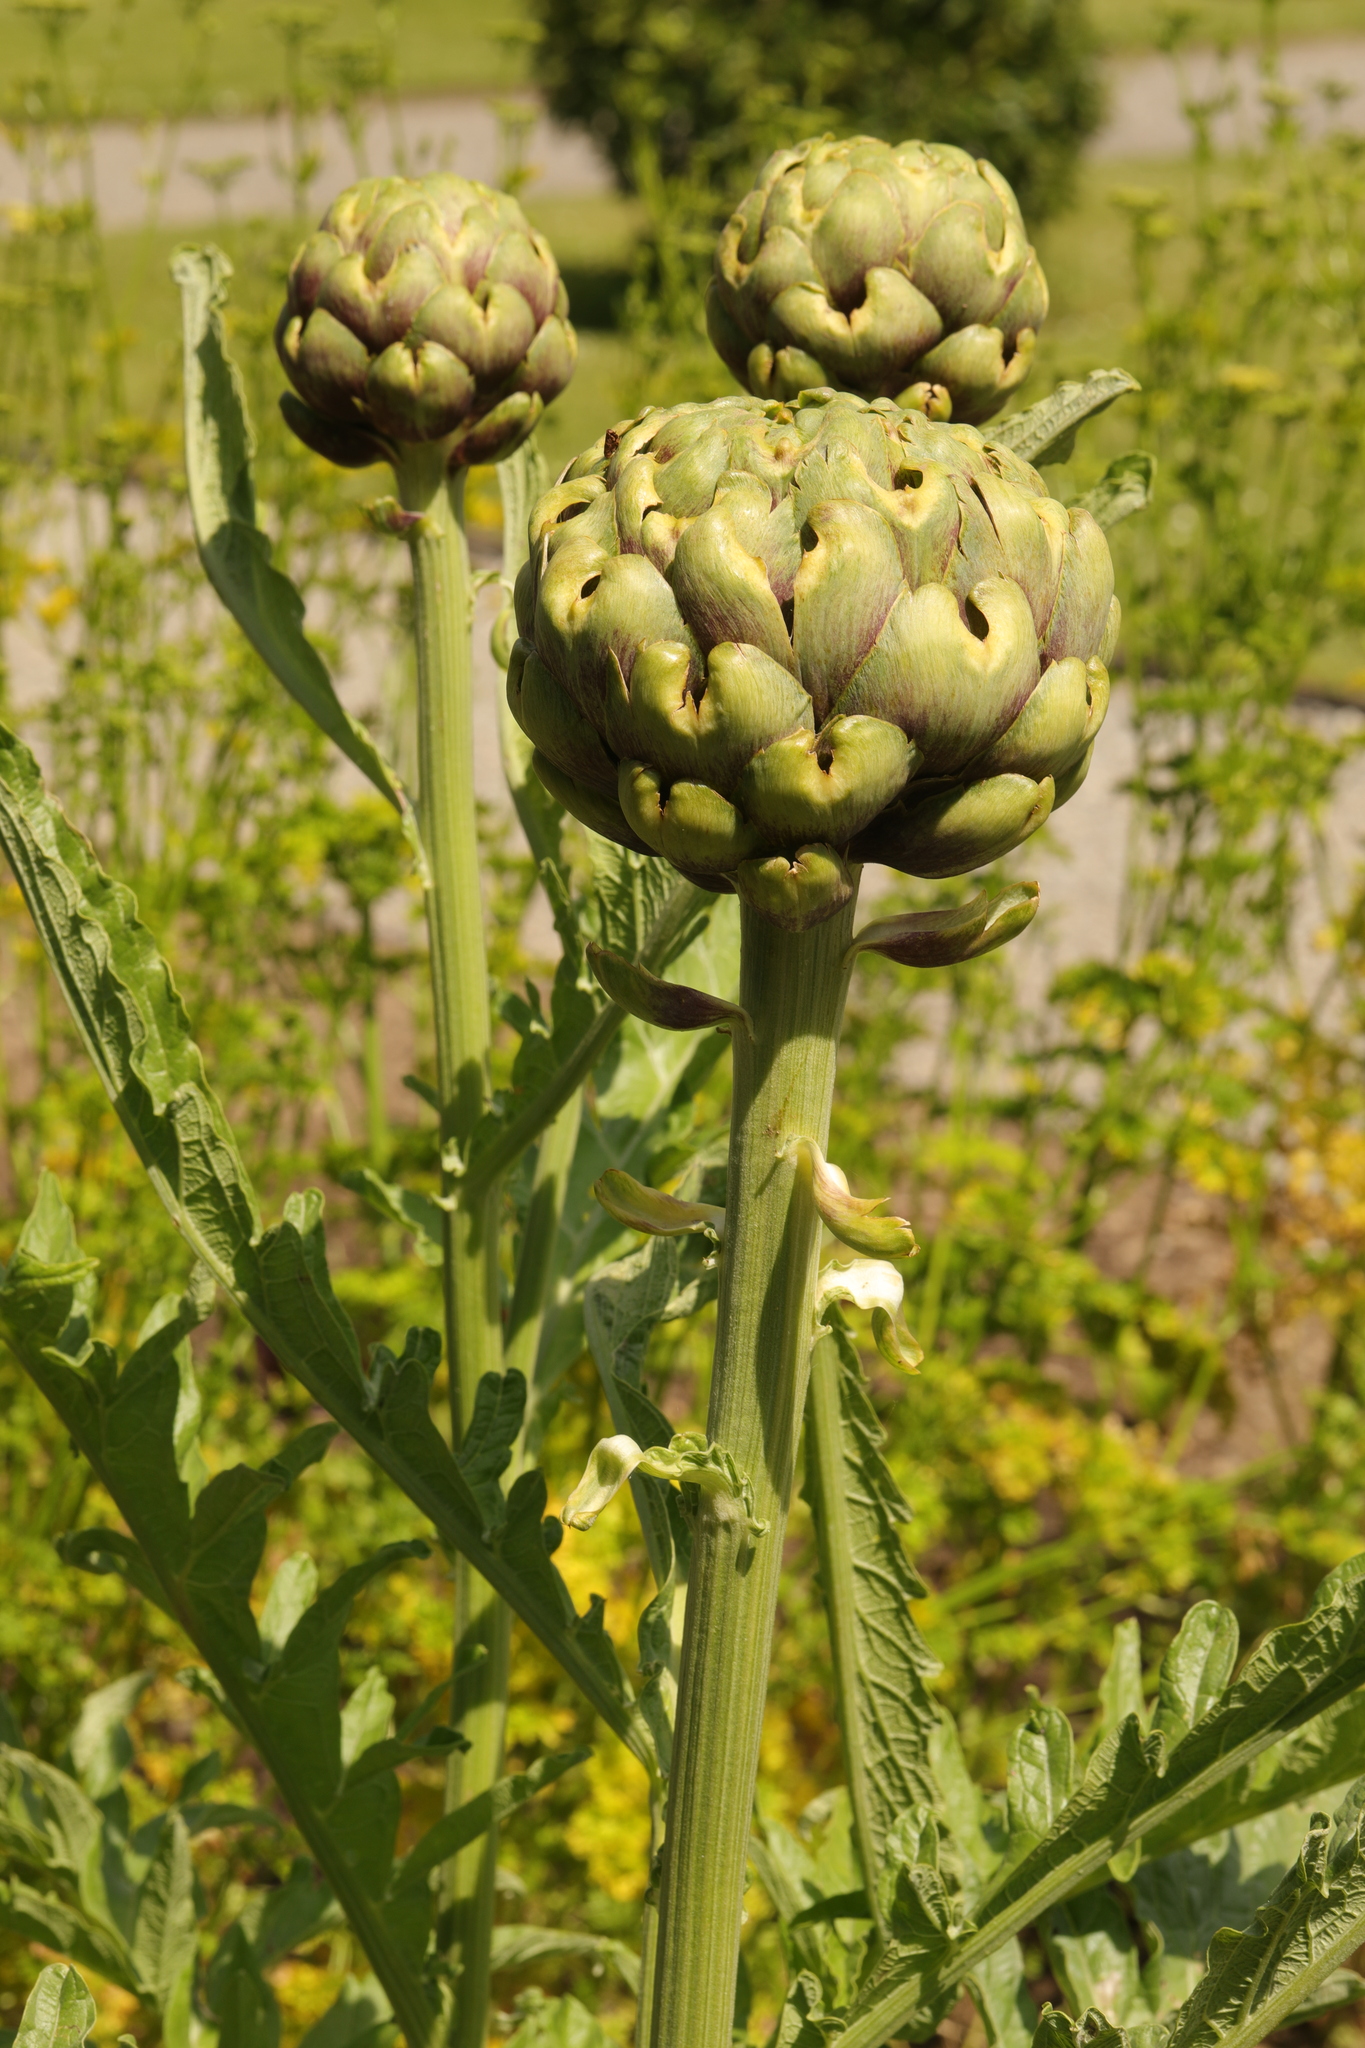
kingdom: Plantae
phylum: Tracheophyta
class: Magnoliopsida
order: Asterales
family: Asteraceae
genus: Cynara
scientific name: Cynara cardunculus
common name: Globe artichoke
